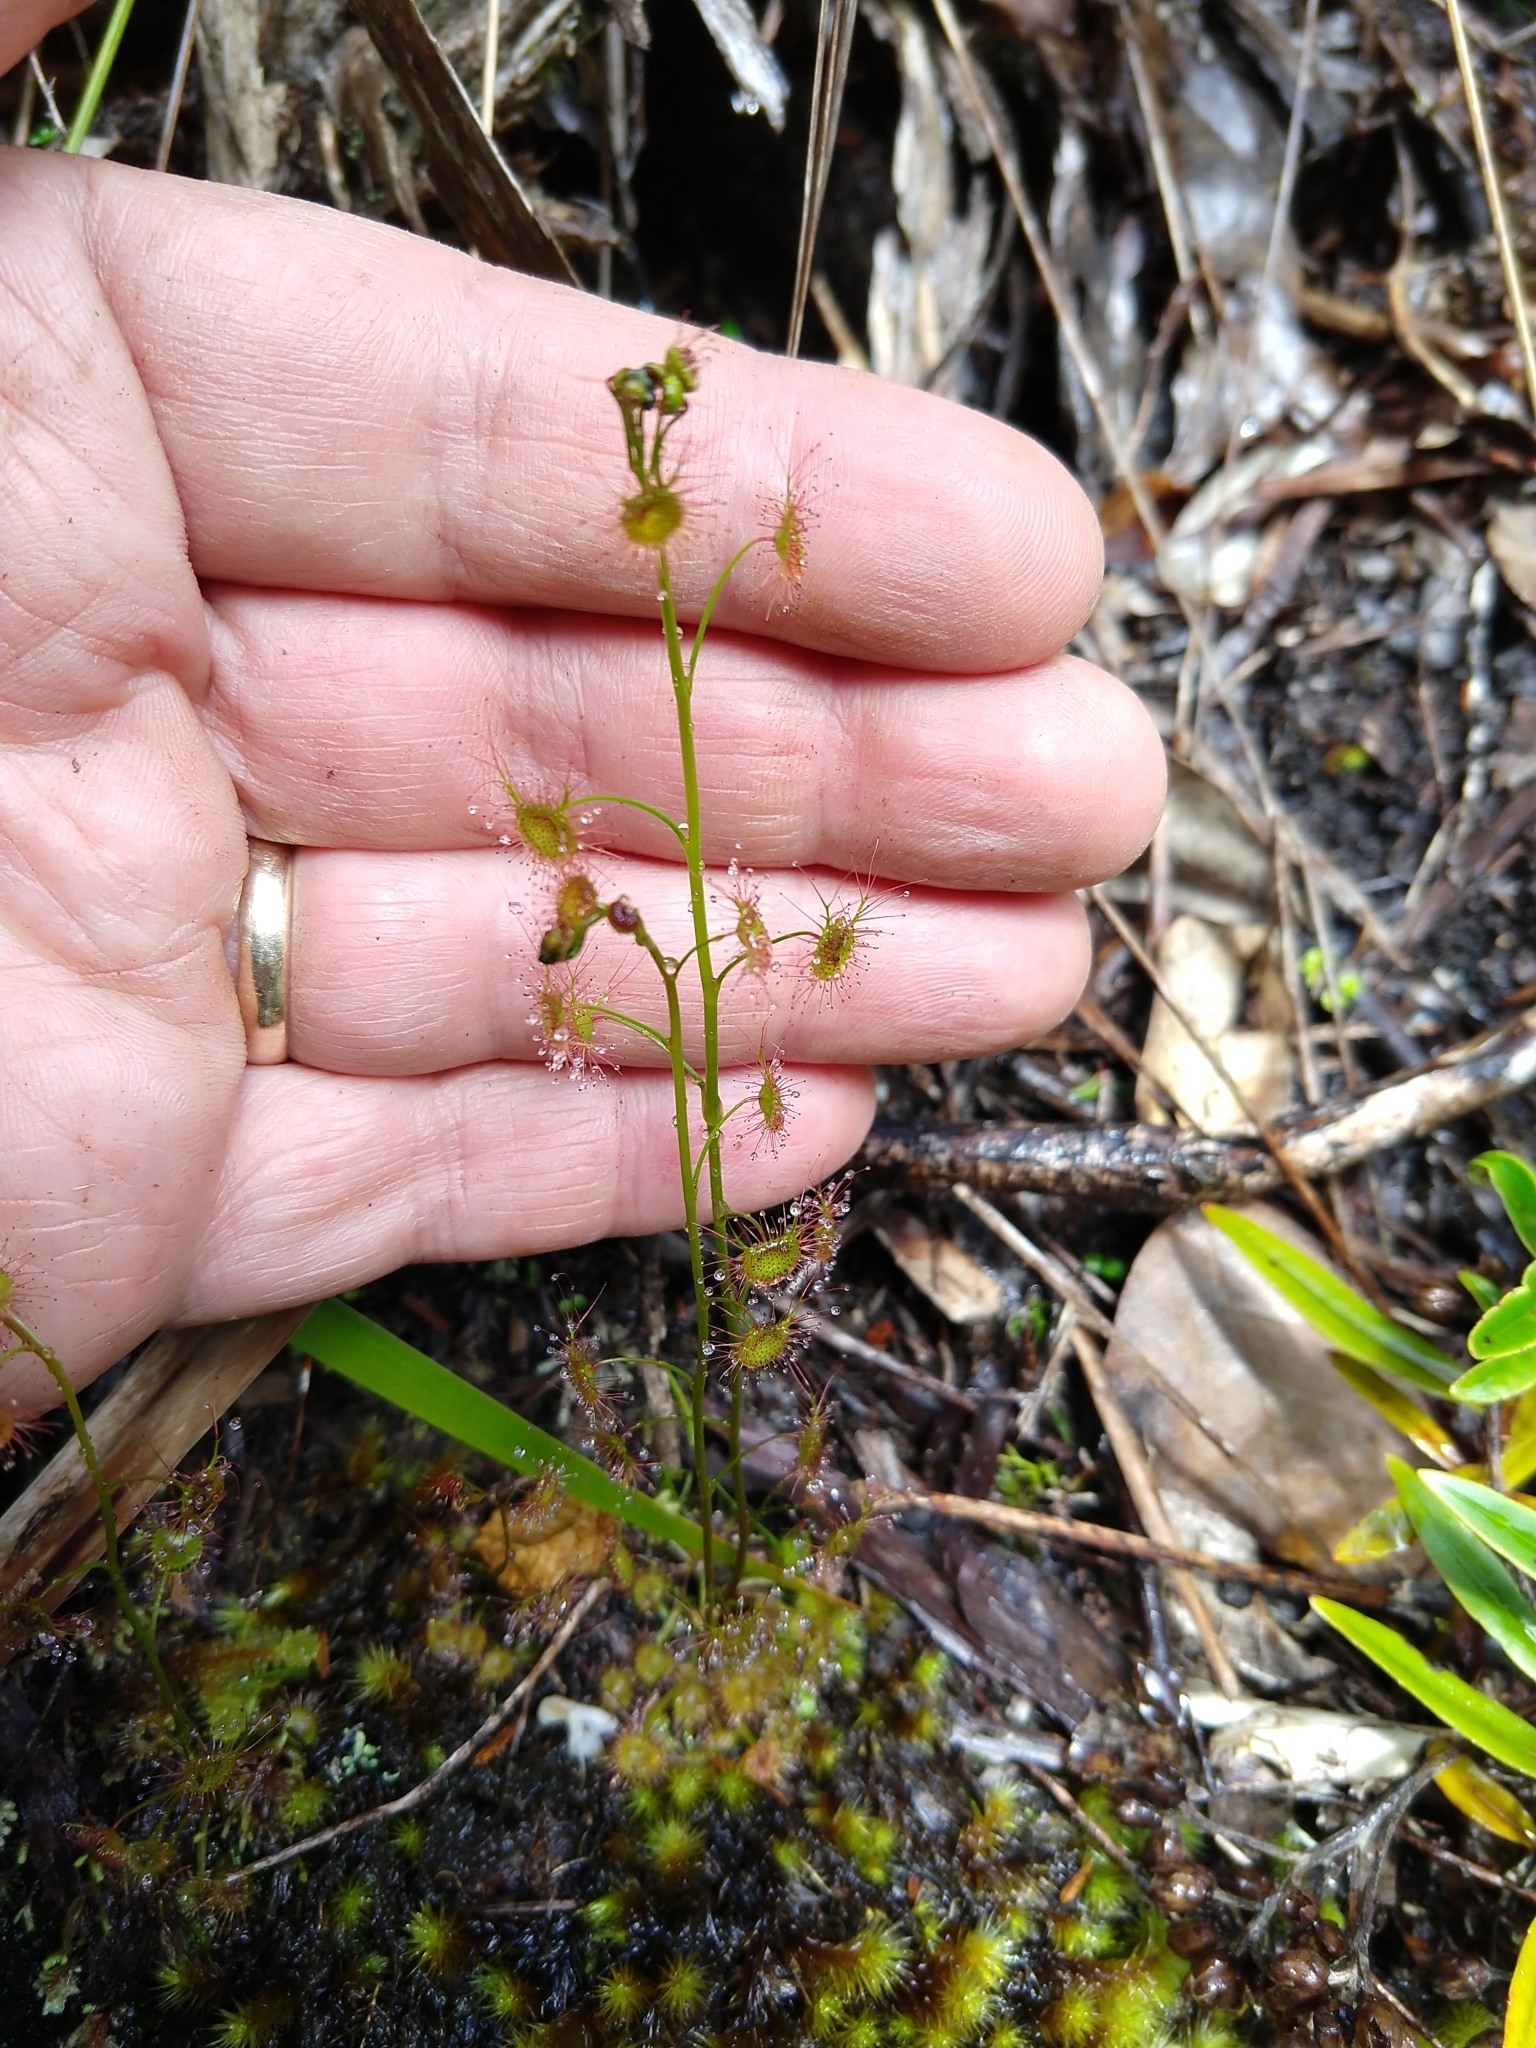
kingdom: Plantae
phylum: Tracheophyta
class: Magnoliopsida
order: Caryophyllales
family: Droseraceae
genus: Drosera
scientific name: Drosera peltata
